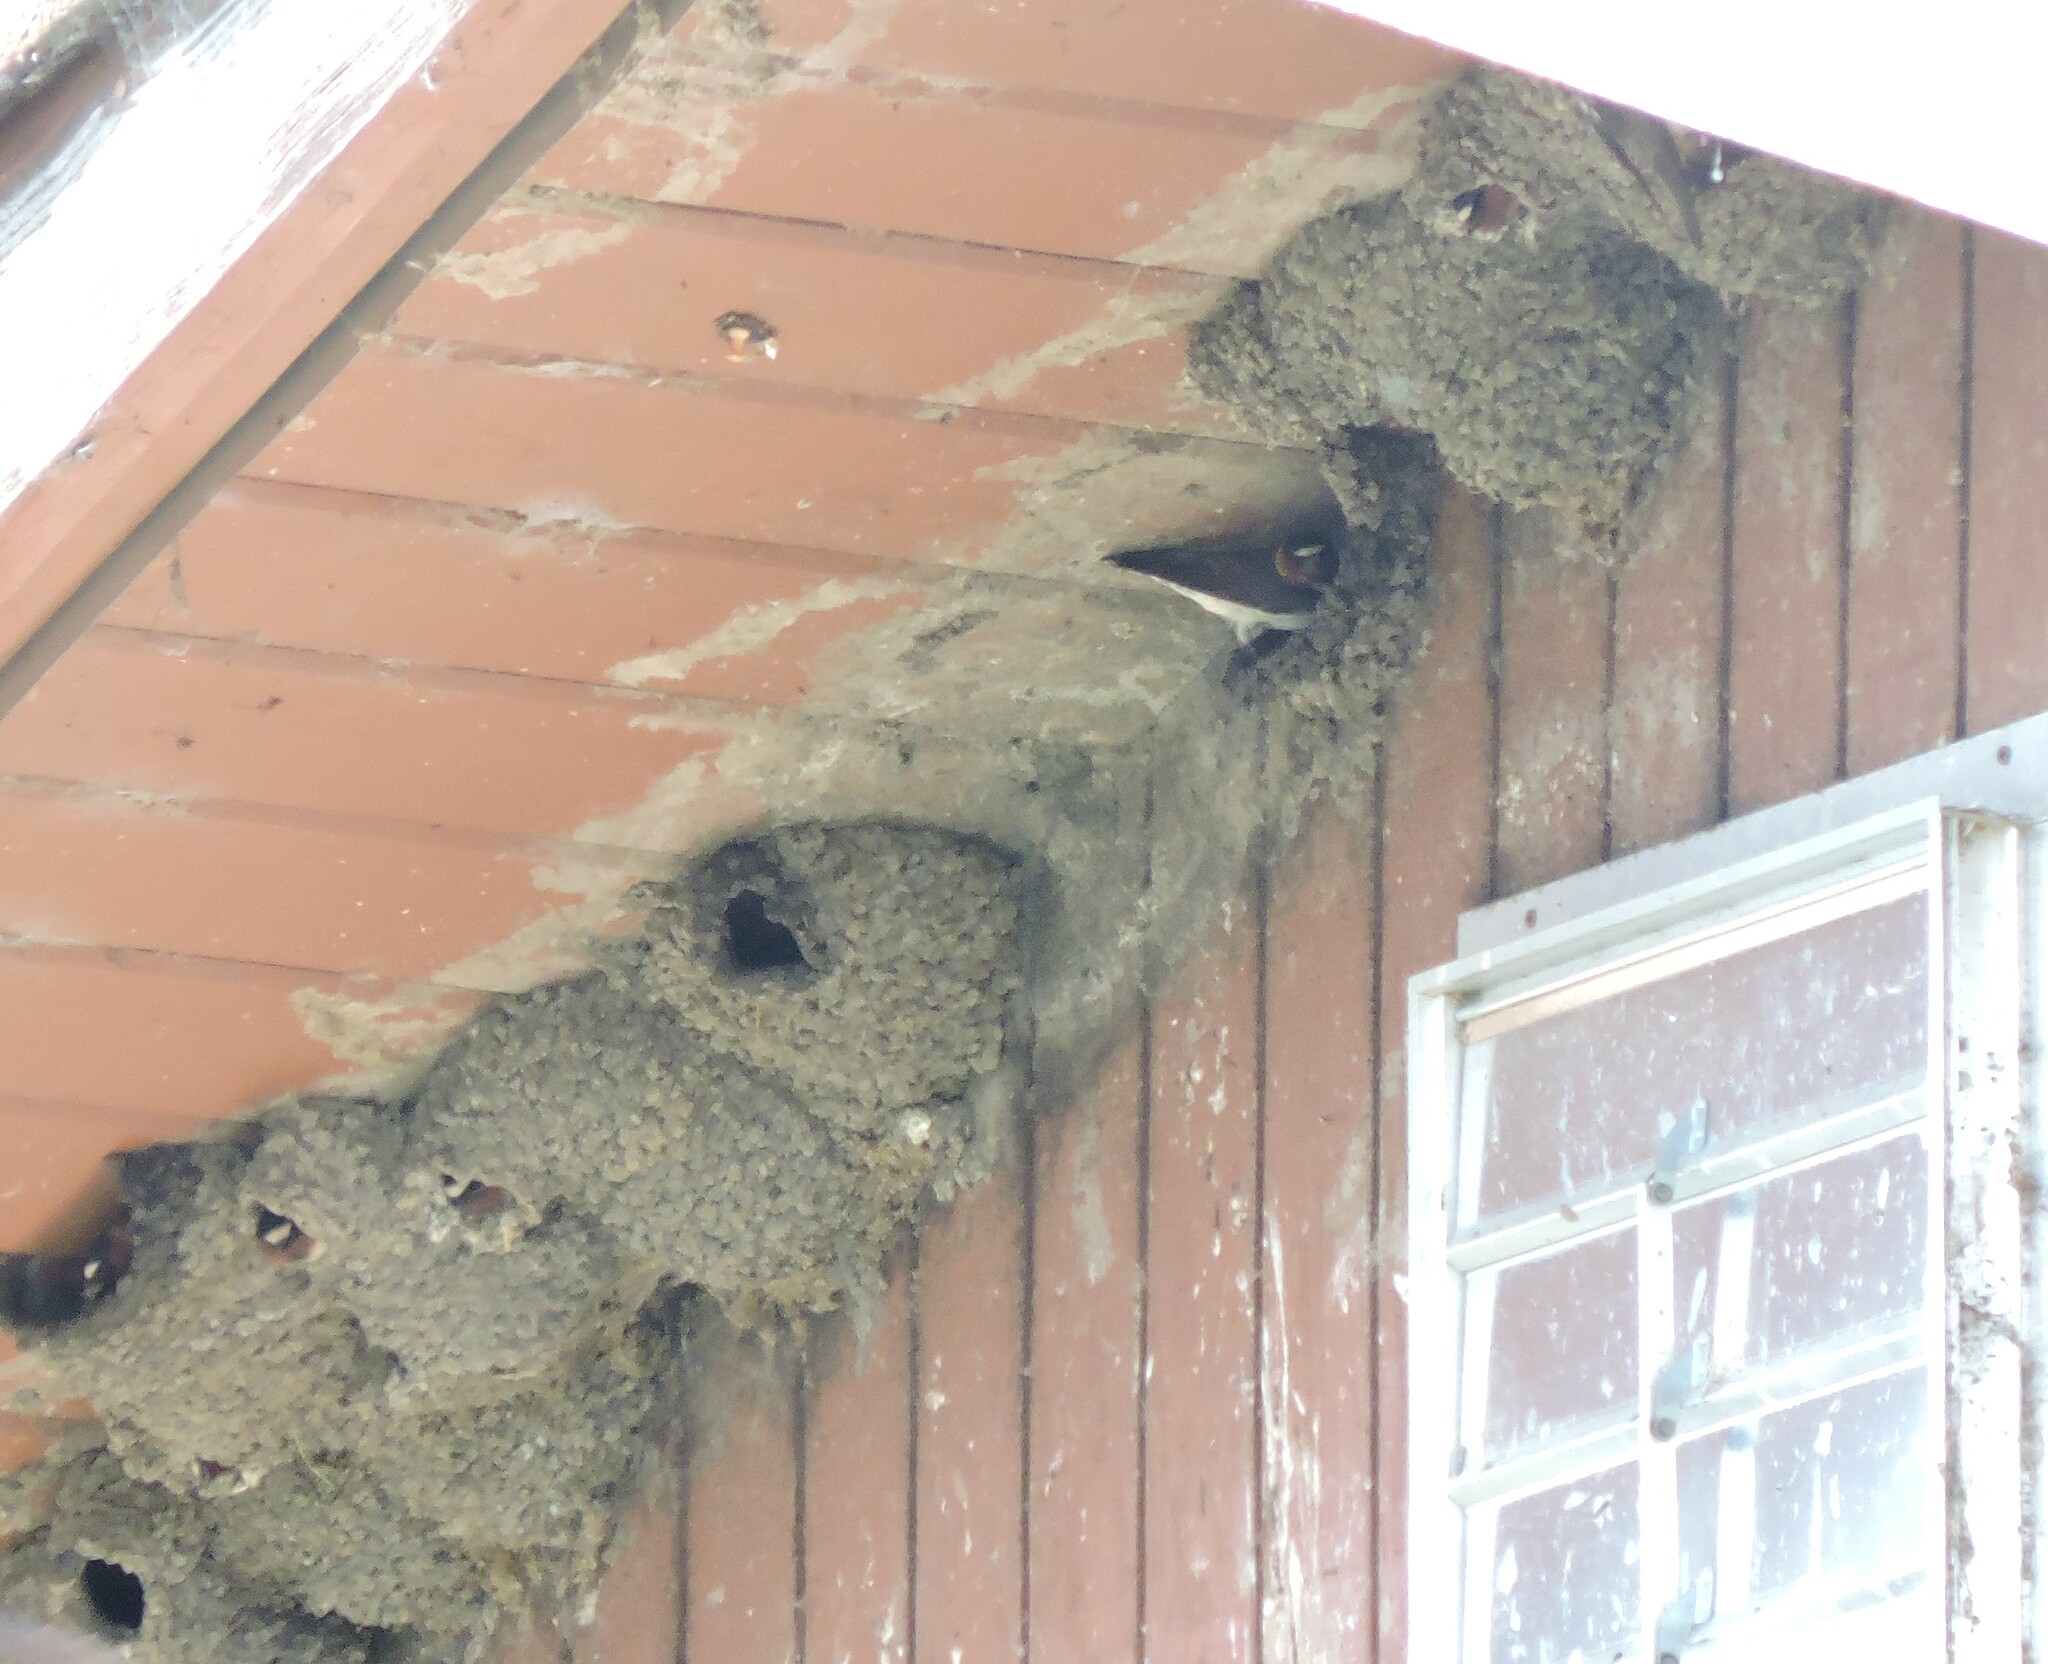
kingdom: Animalia
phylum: Chordata
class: Aves
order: Passeriformes
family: Hirundinidae
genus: Petrochelidon
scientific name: Petrochelidon pyrrhonota
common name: American cliff swallow
